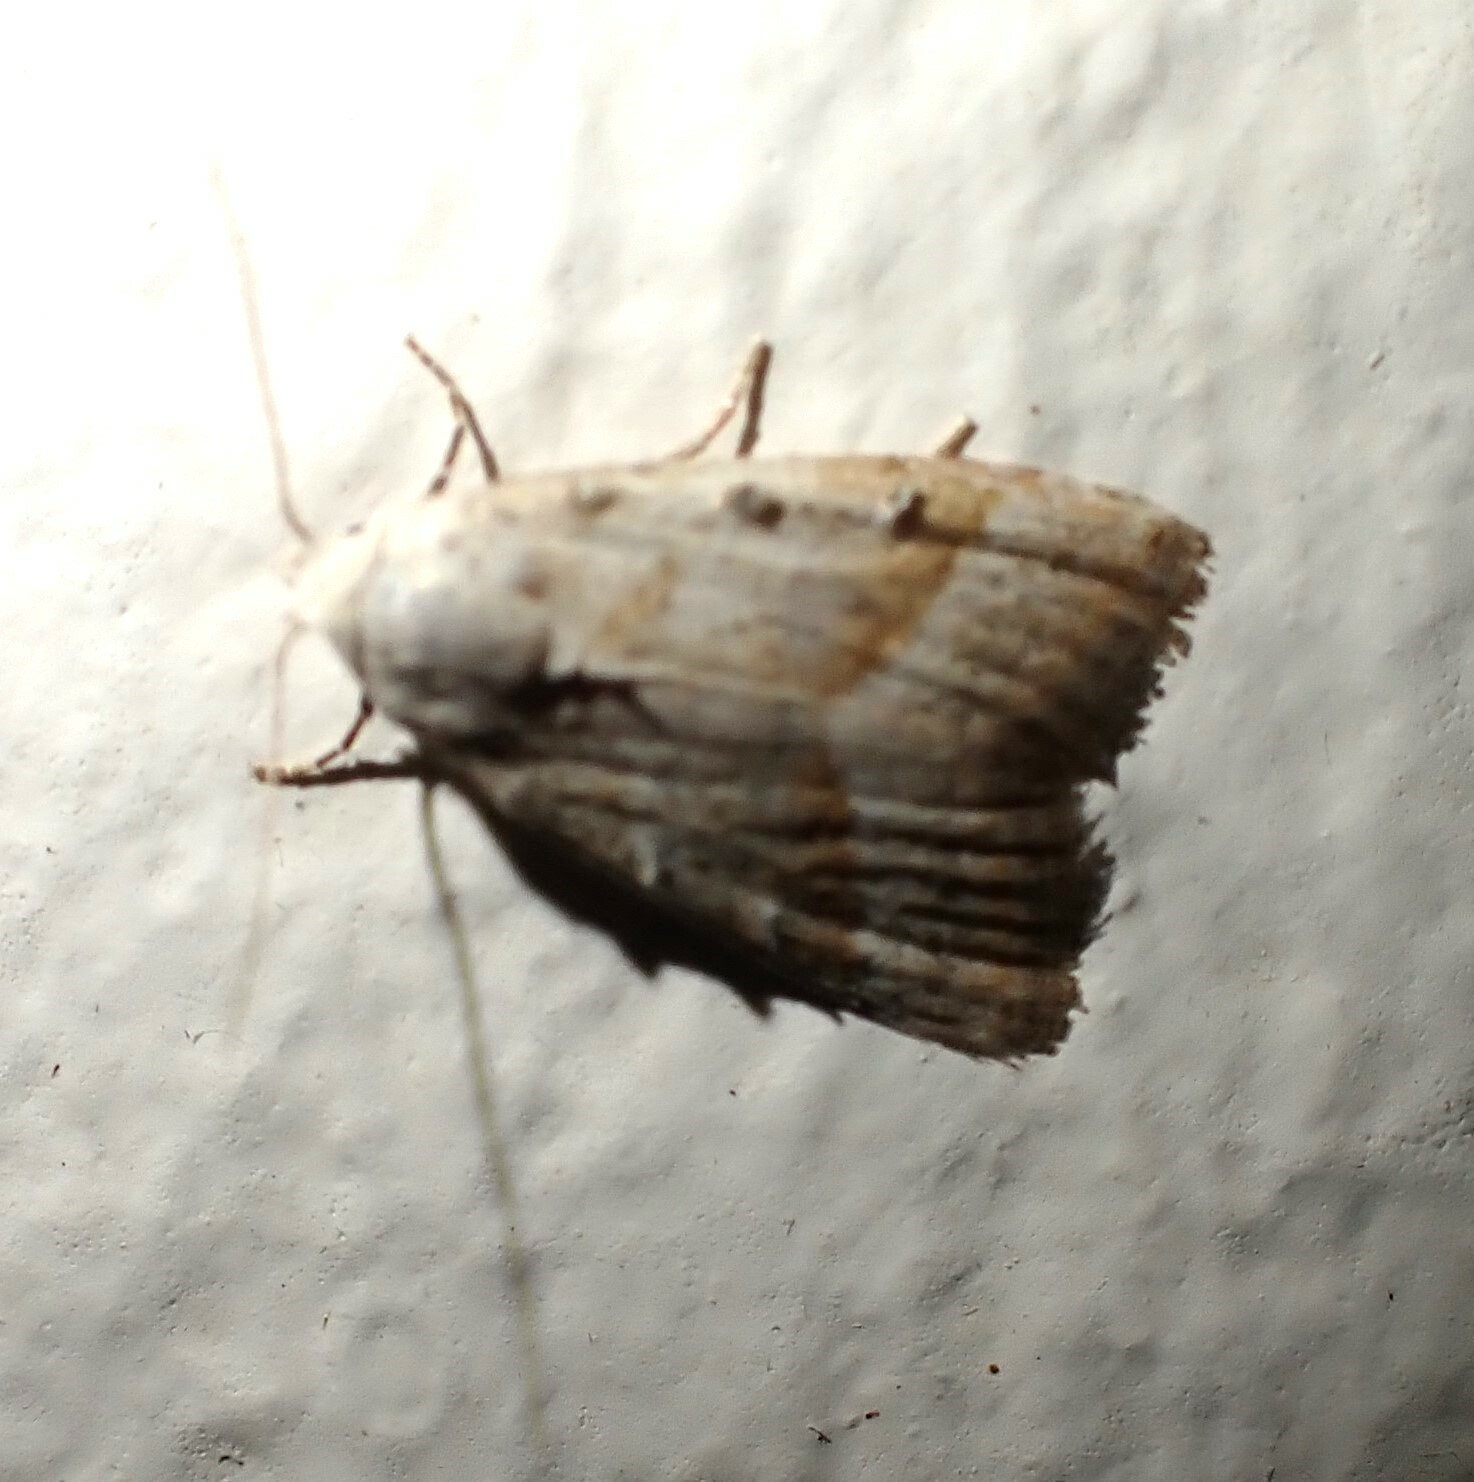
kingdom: Animalia
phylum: Arthropoda
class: Insecta
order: Lepidoptera
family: Nolidae
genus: Nola
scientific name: Nola tineoides
